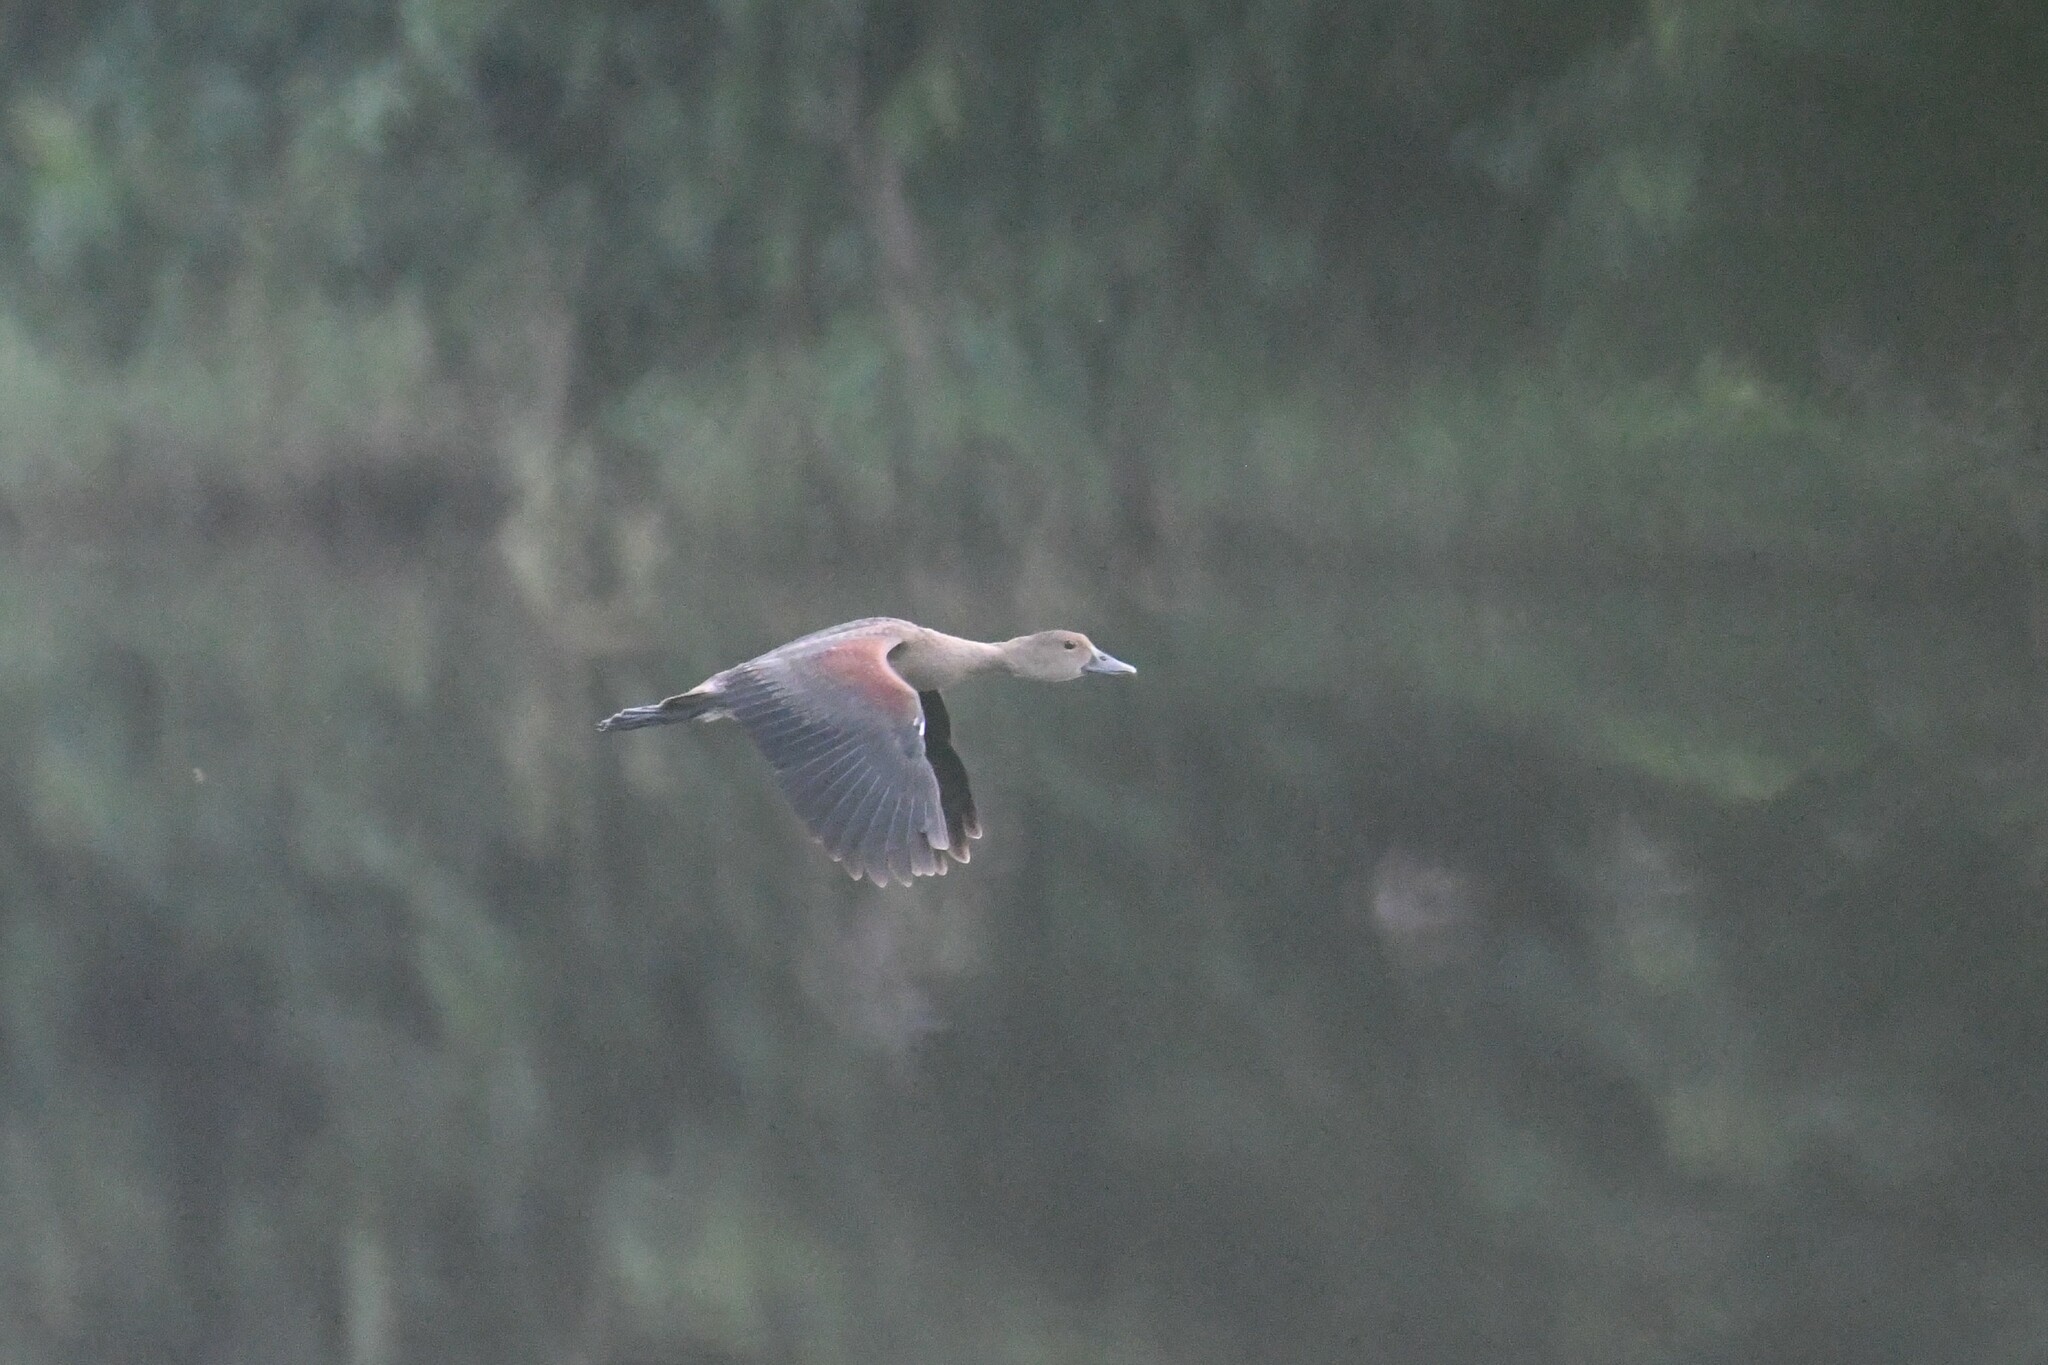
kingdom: Animalia
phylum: Chordata
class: Aves
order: Anseriformes
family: Anatidae
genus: Dendrocygna
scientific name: Dendrocygna javanica
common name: Lesser whistling-duck
